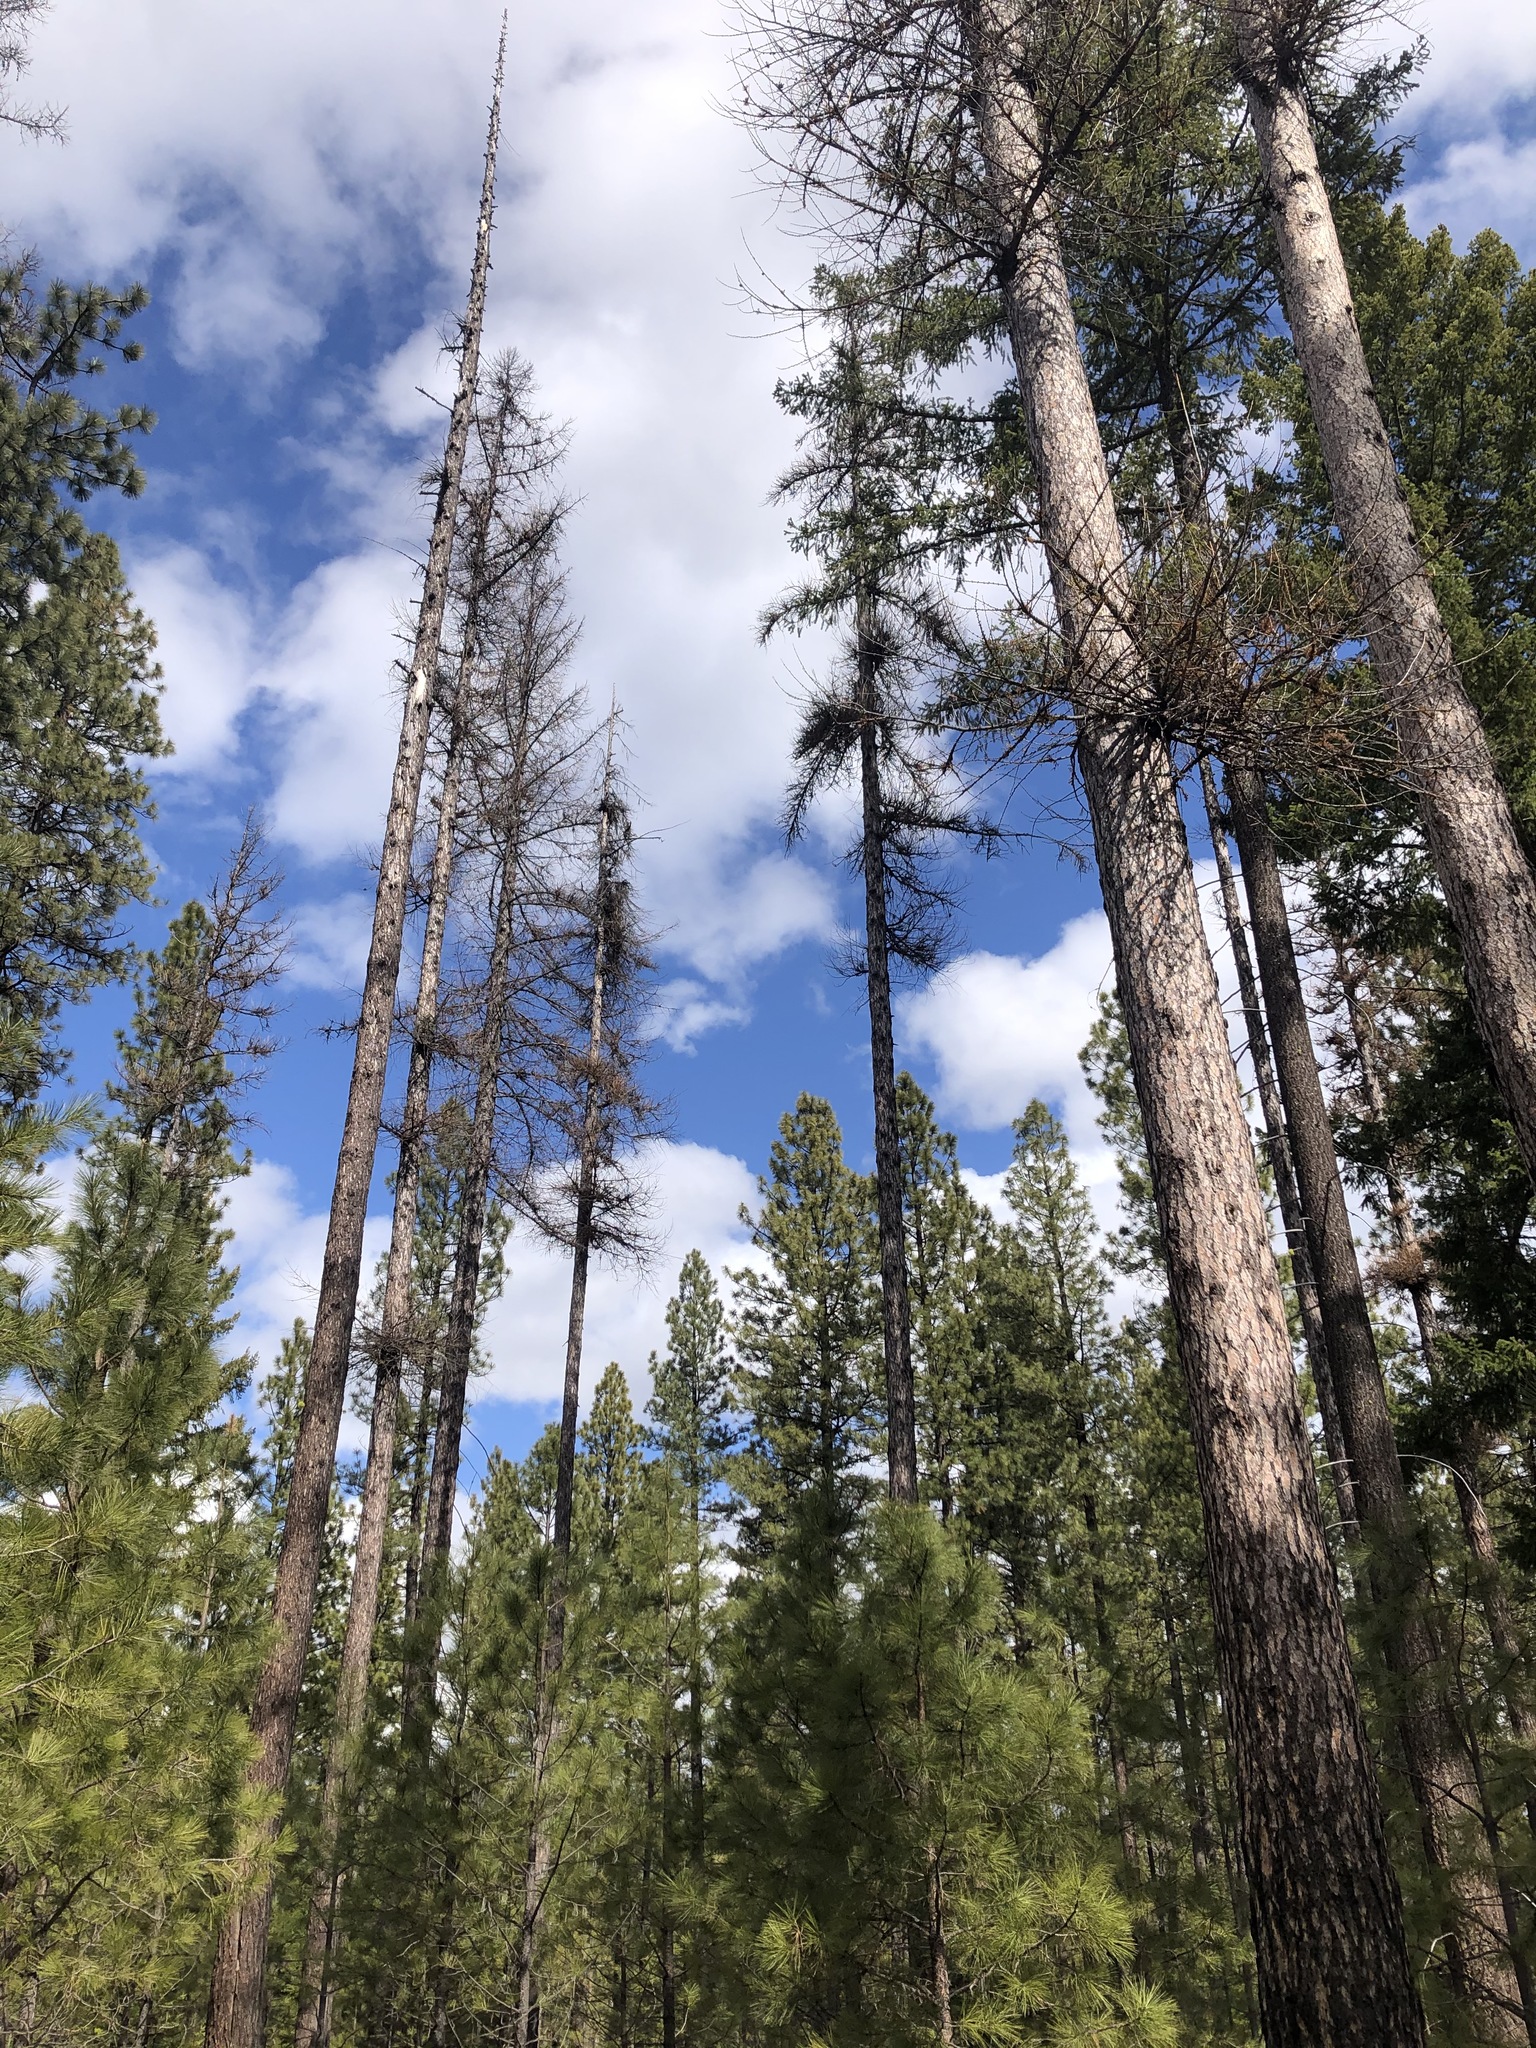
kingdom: Plantae
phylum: Tracheophyta
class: Pinopsida
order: Pinales
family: Pinaceae
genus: Larix
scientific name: Larix occidentalis
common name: Western larch
